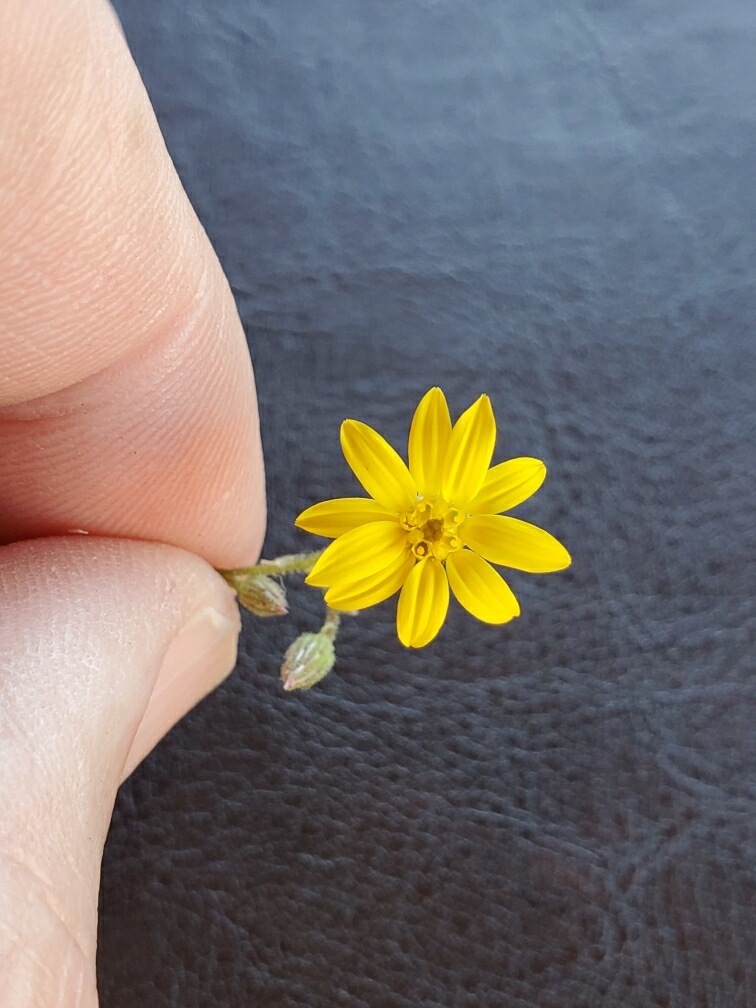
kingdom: Plantae
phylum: Tracheophyta
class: Magnoliopsida
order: Asterales
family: Asteraceae
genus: Croptilon
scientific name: Croptilon divaricatum
